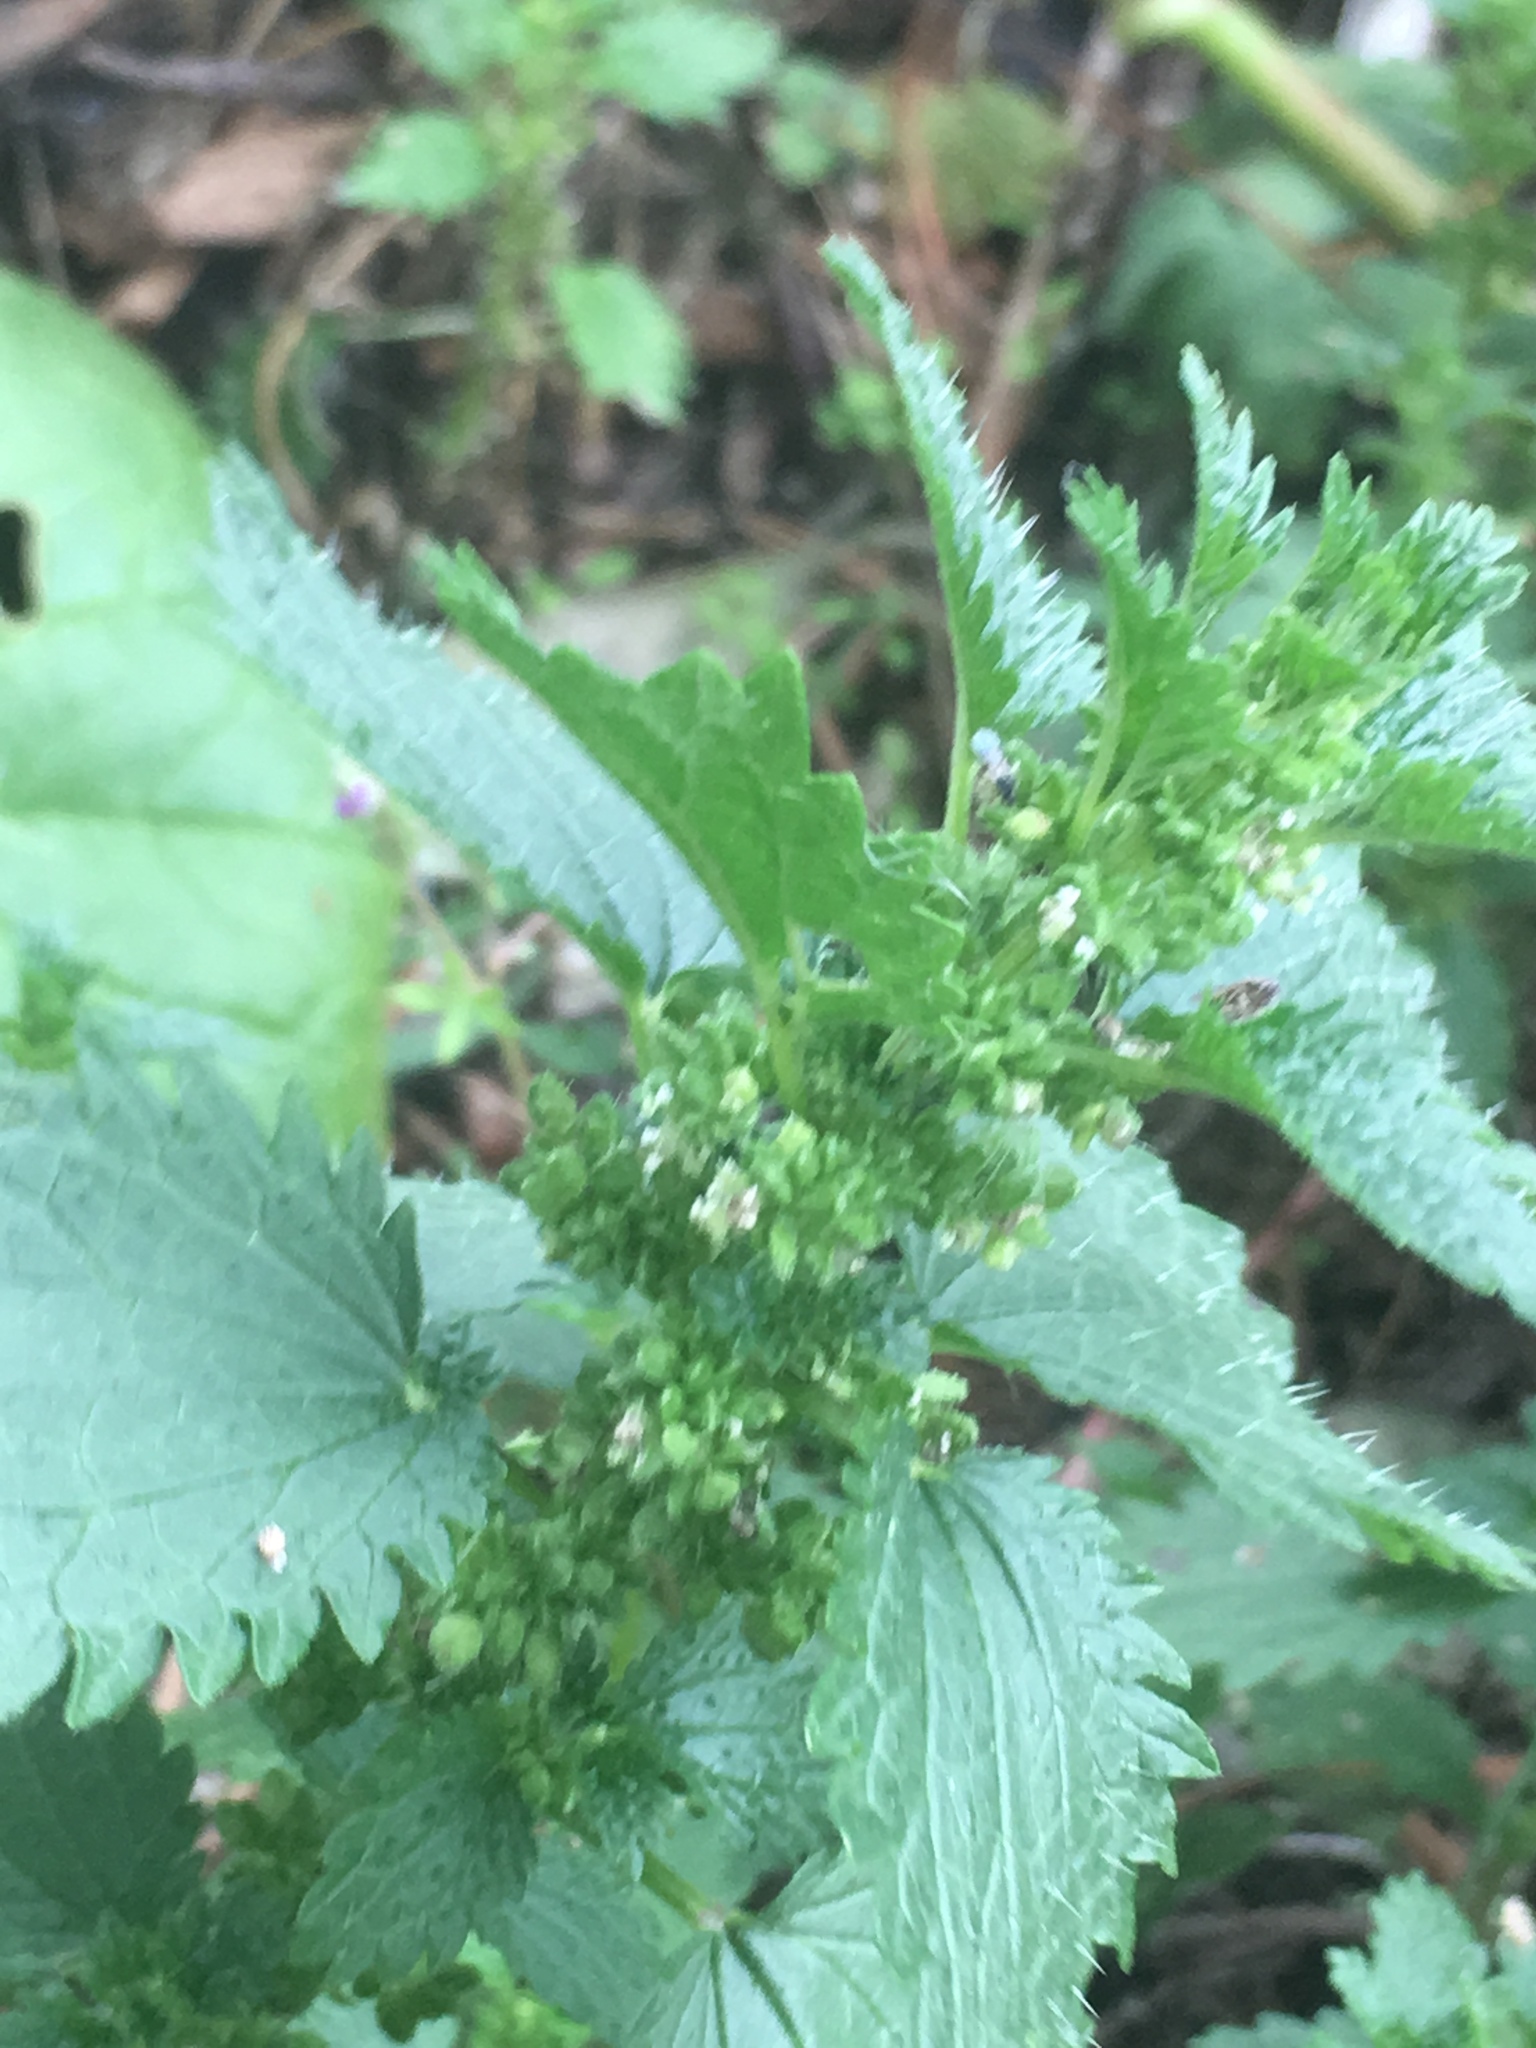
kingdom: Plantae
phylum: Tracheophyta
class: Magnoliopsida
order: Rosales
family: Urticaceae
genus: Urtica
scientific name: Urtica urens
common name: Dwarf nettle
